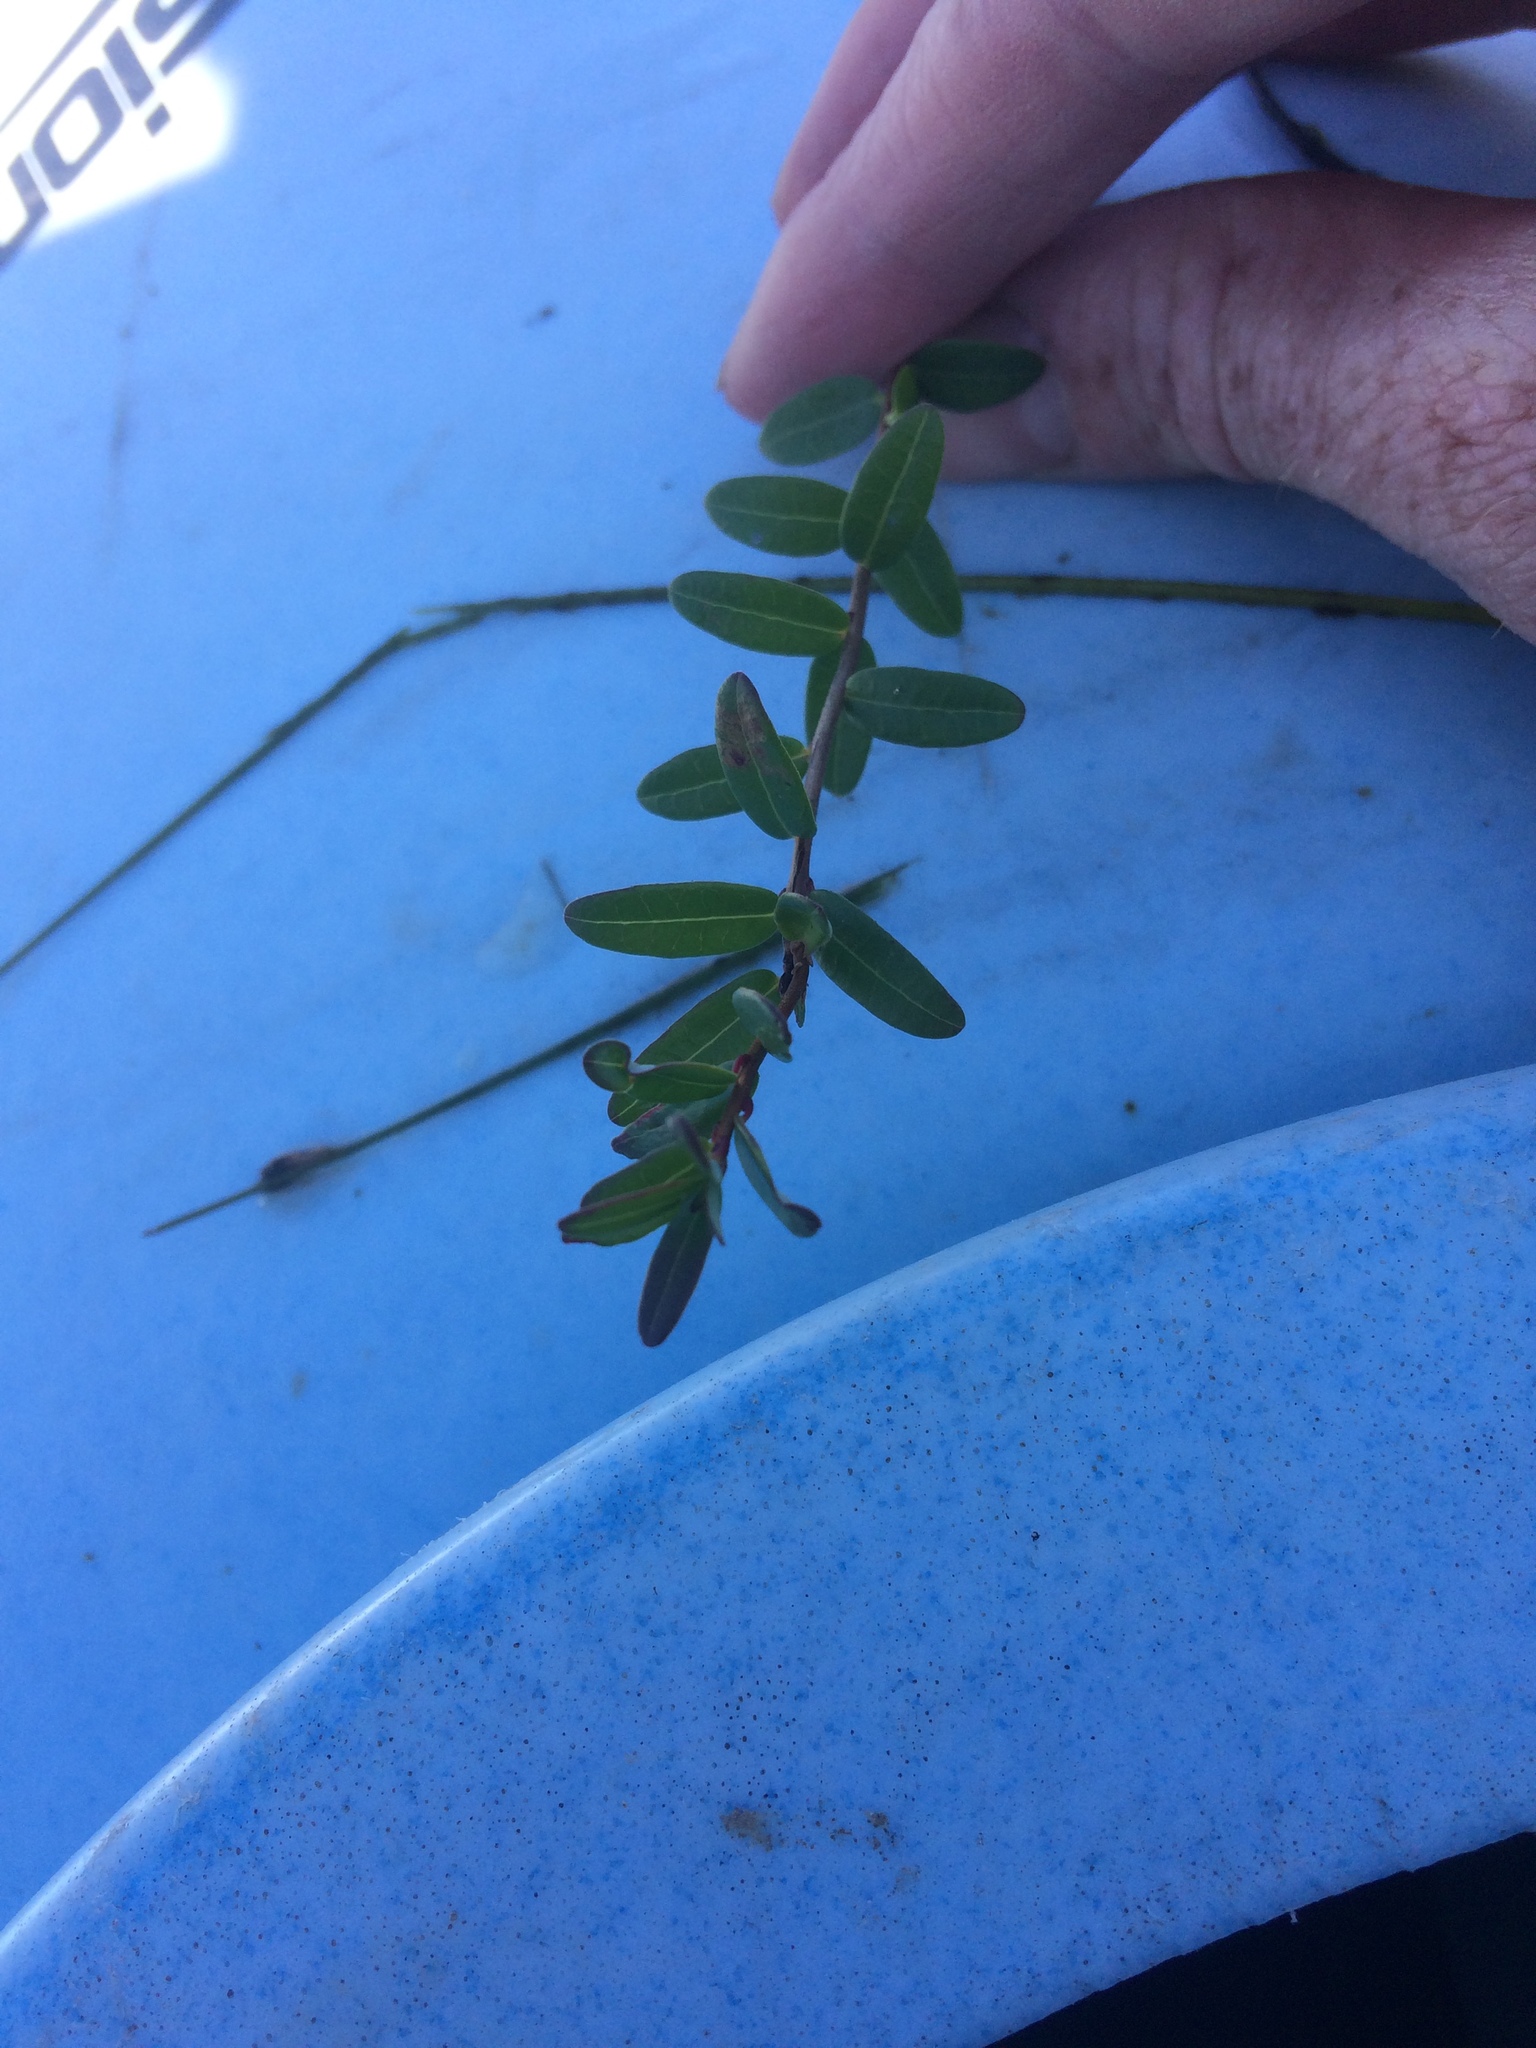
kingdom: Plantae
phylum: Tracheophyta
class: Magnoliopsida
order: Ericales
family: Ericaceae
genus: Vaccinium
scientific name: Vaccinium macrocarpon
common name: American cranberry
